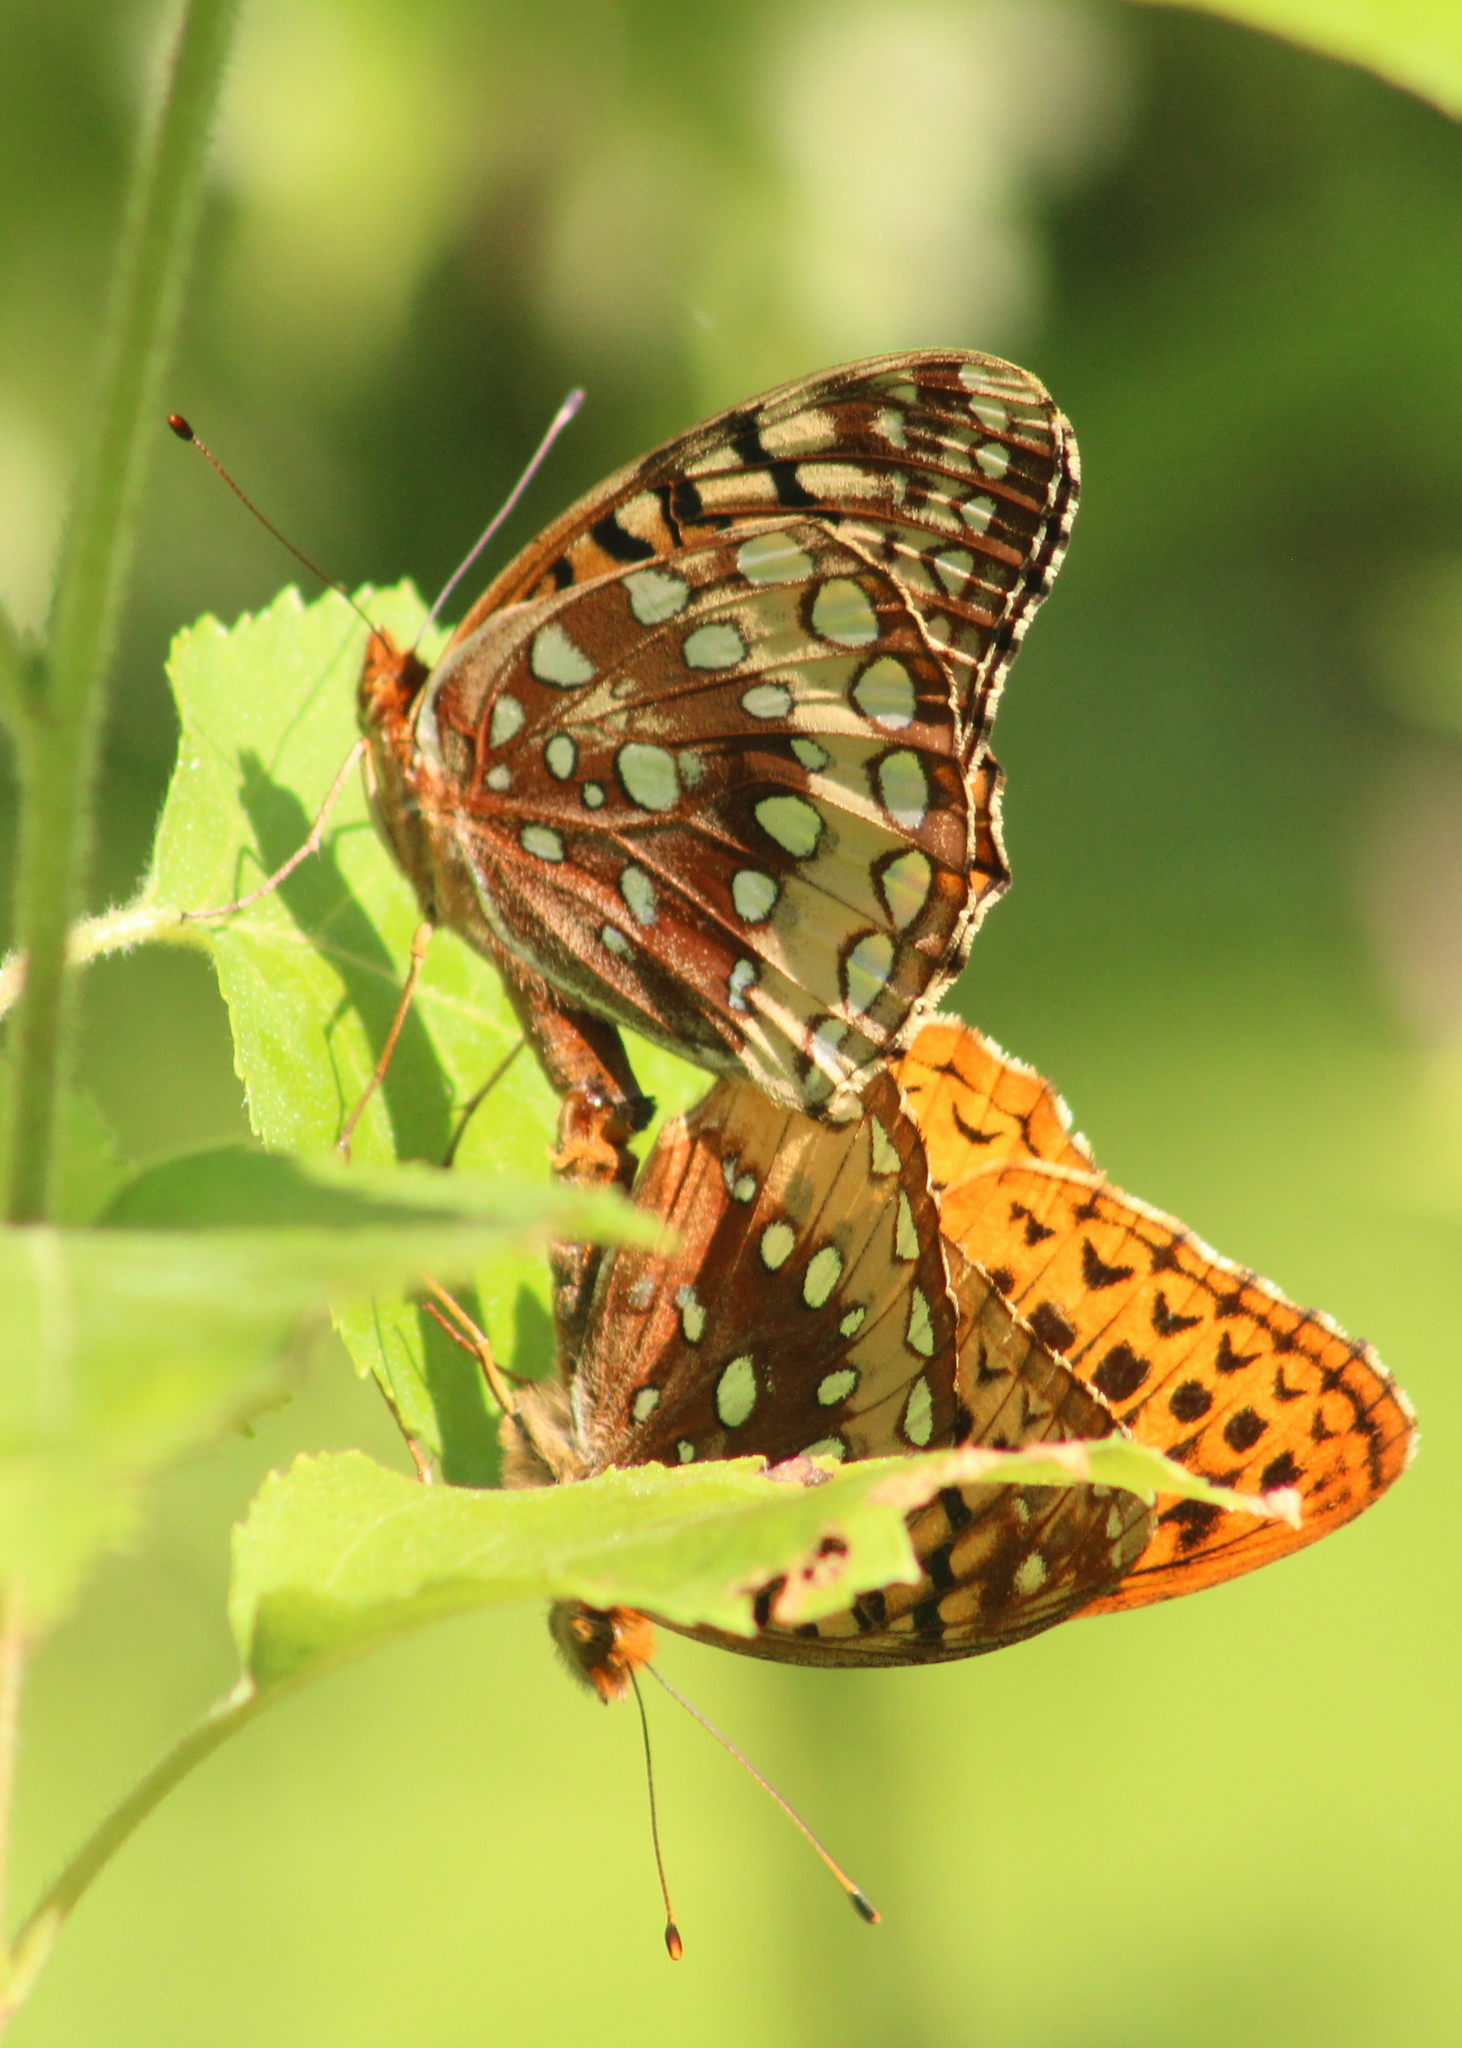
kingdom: Animalia
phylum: Arthropoda
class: Insecta
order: Lepidoptera
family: Nymphalidae
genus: Speyeria
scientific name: Speyeria cybele
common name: Great spangled fritillary
